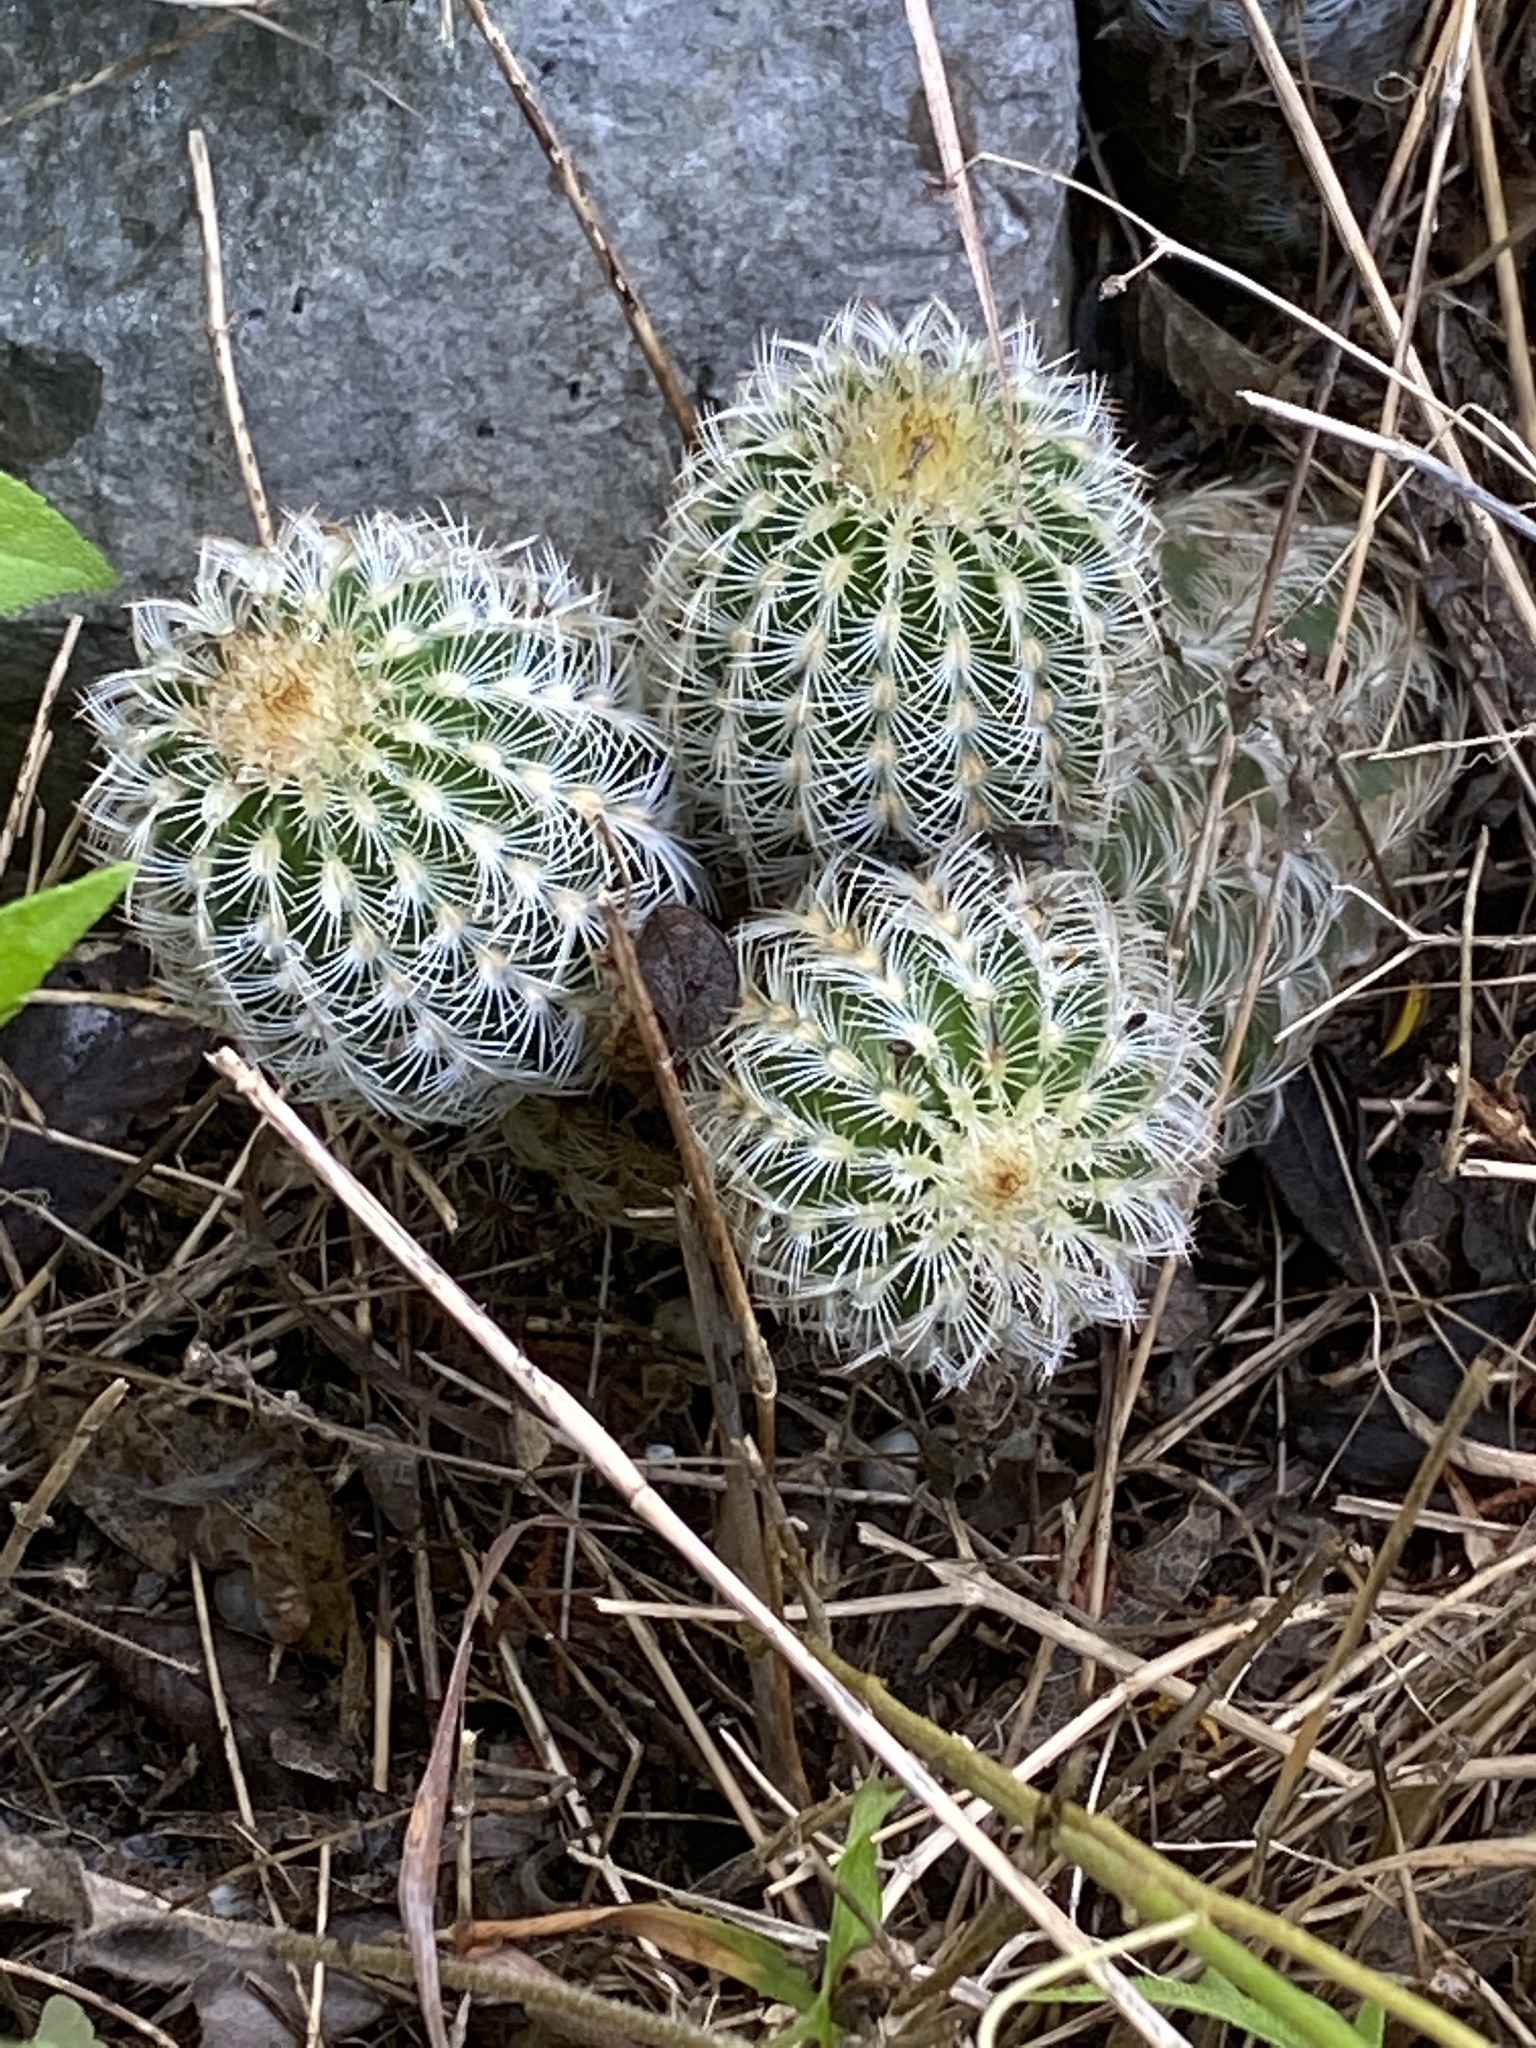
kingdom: Plantae
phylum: Tracheophyta
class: Magnoliopsida
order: Caryophyllales
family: Cactaceae
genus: Echinocereus
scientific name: Echinocereus reichenbachii
